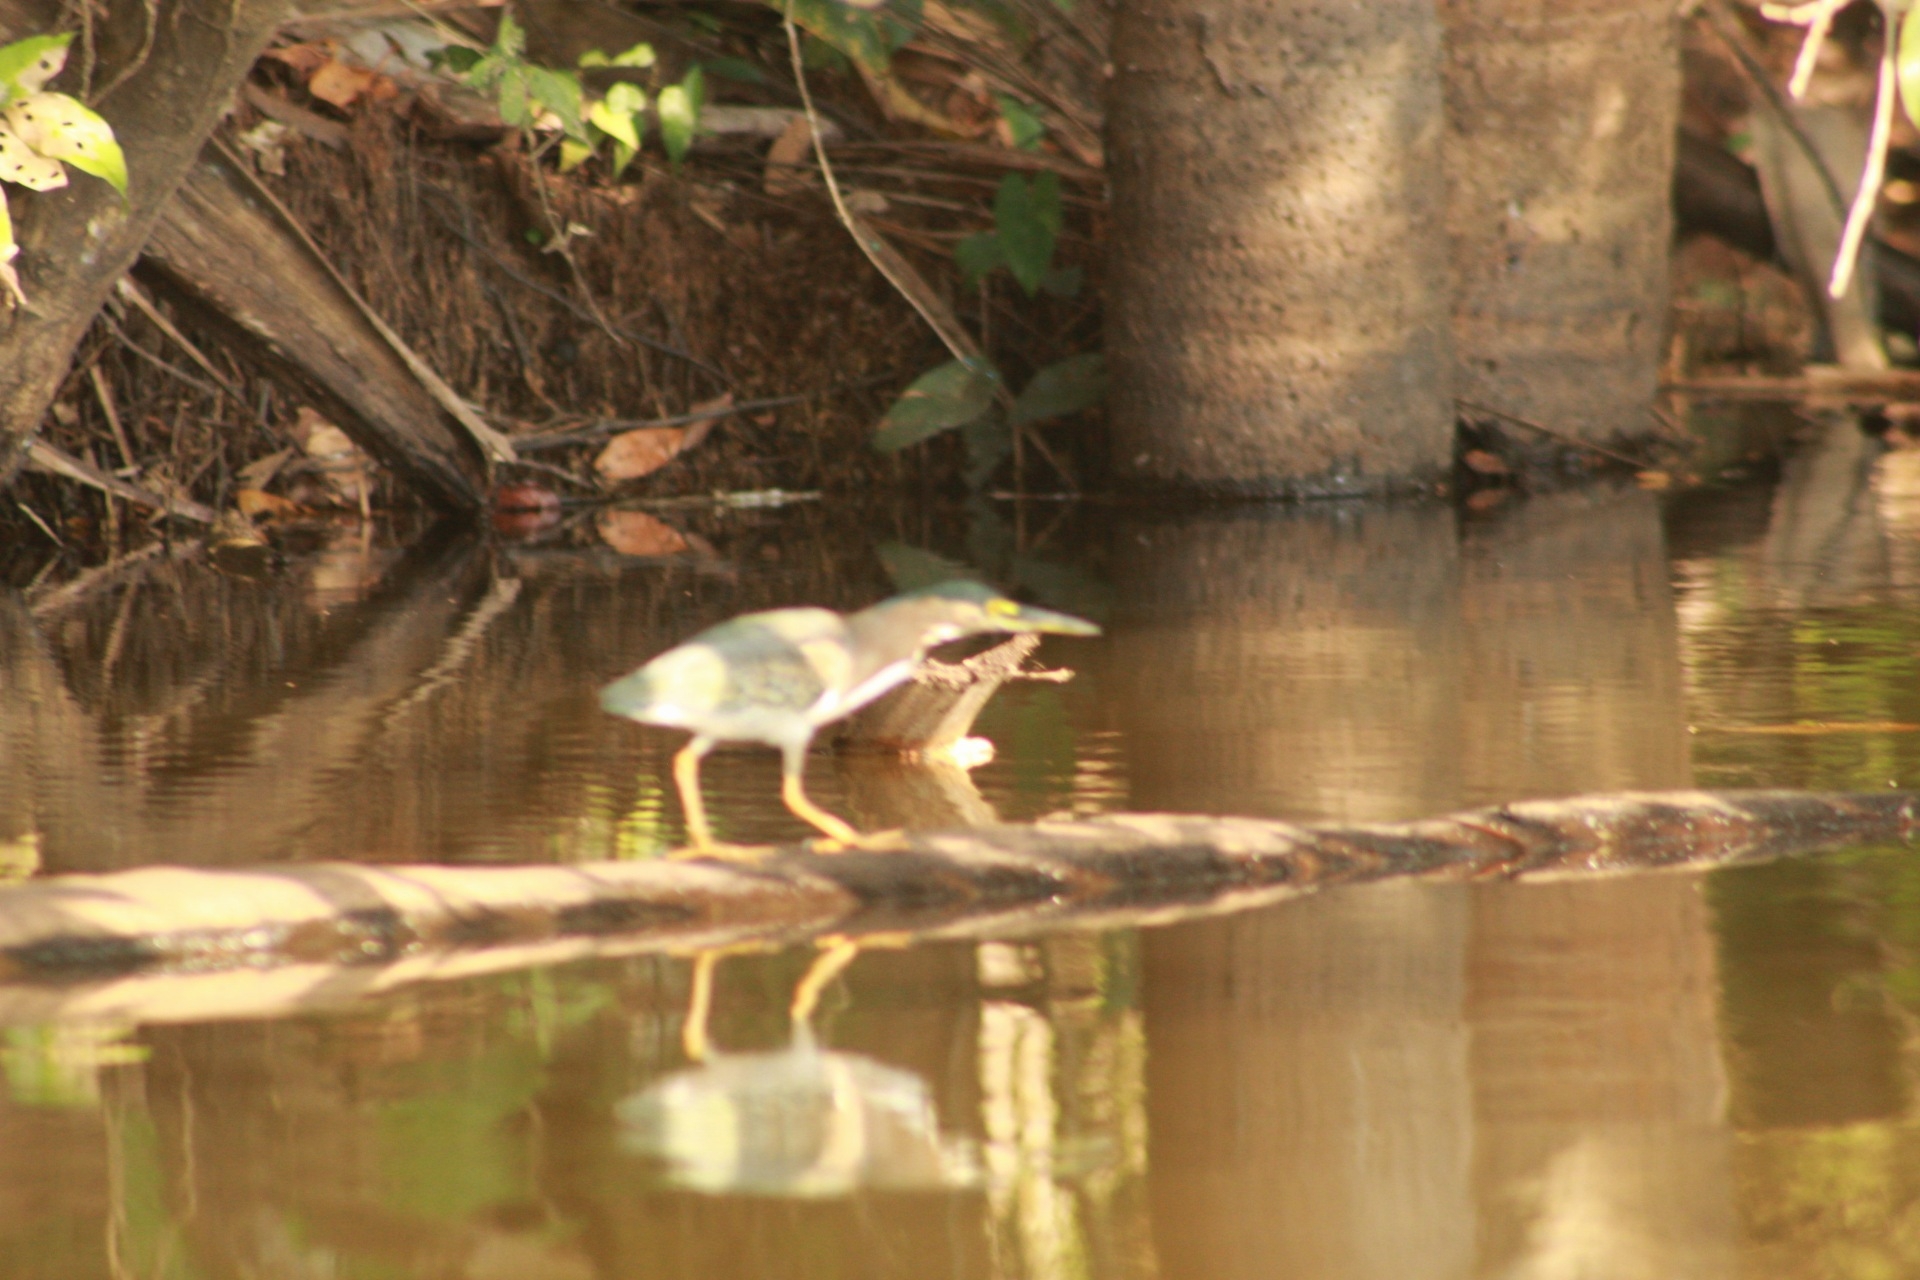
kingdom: Animalia
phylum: Chordata
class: Aves
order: Pelecaniformes
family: Ardeidae
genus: Butorides
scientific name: Butorides striata
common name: Striated heron
